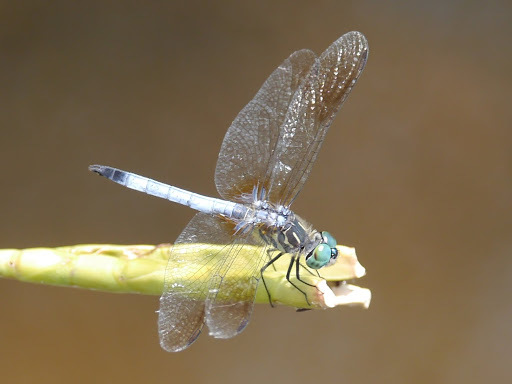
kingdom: Animalia
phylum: Arthropoda
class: Insecta
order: Odonata
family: Libellulidae
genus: Pachydiplax
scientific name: Pachydiplax longipennis
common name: Blue dasher
